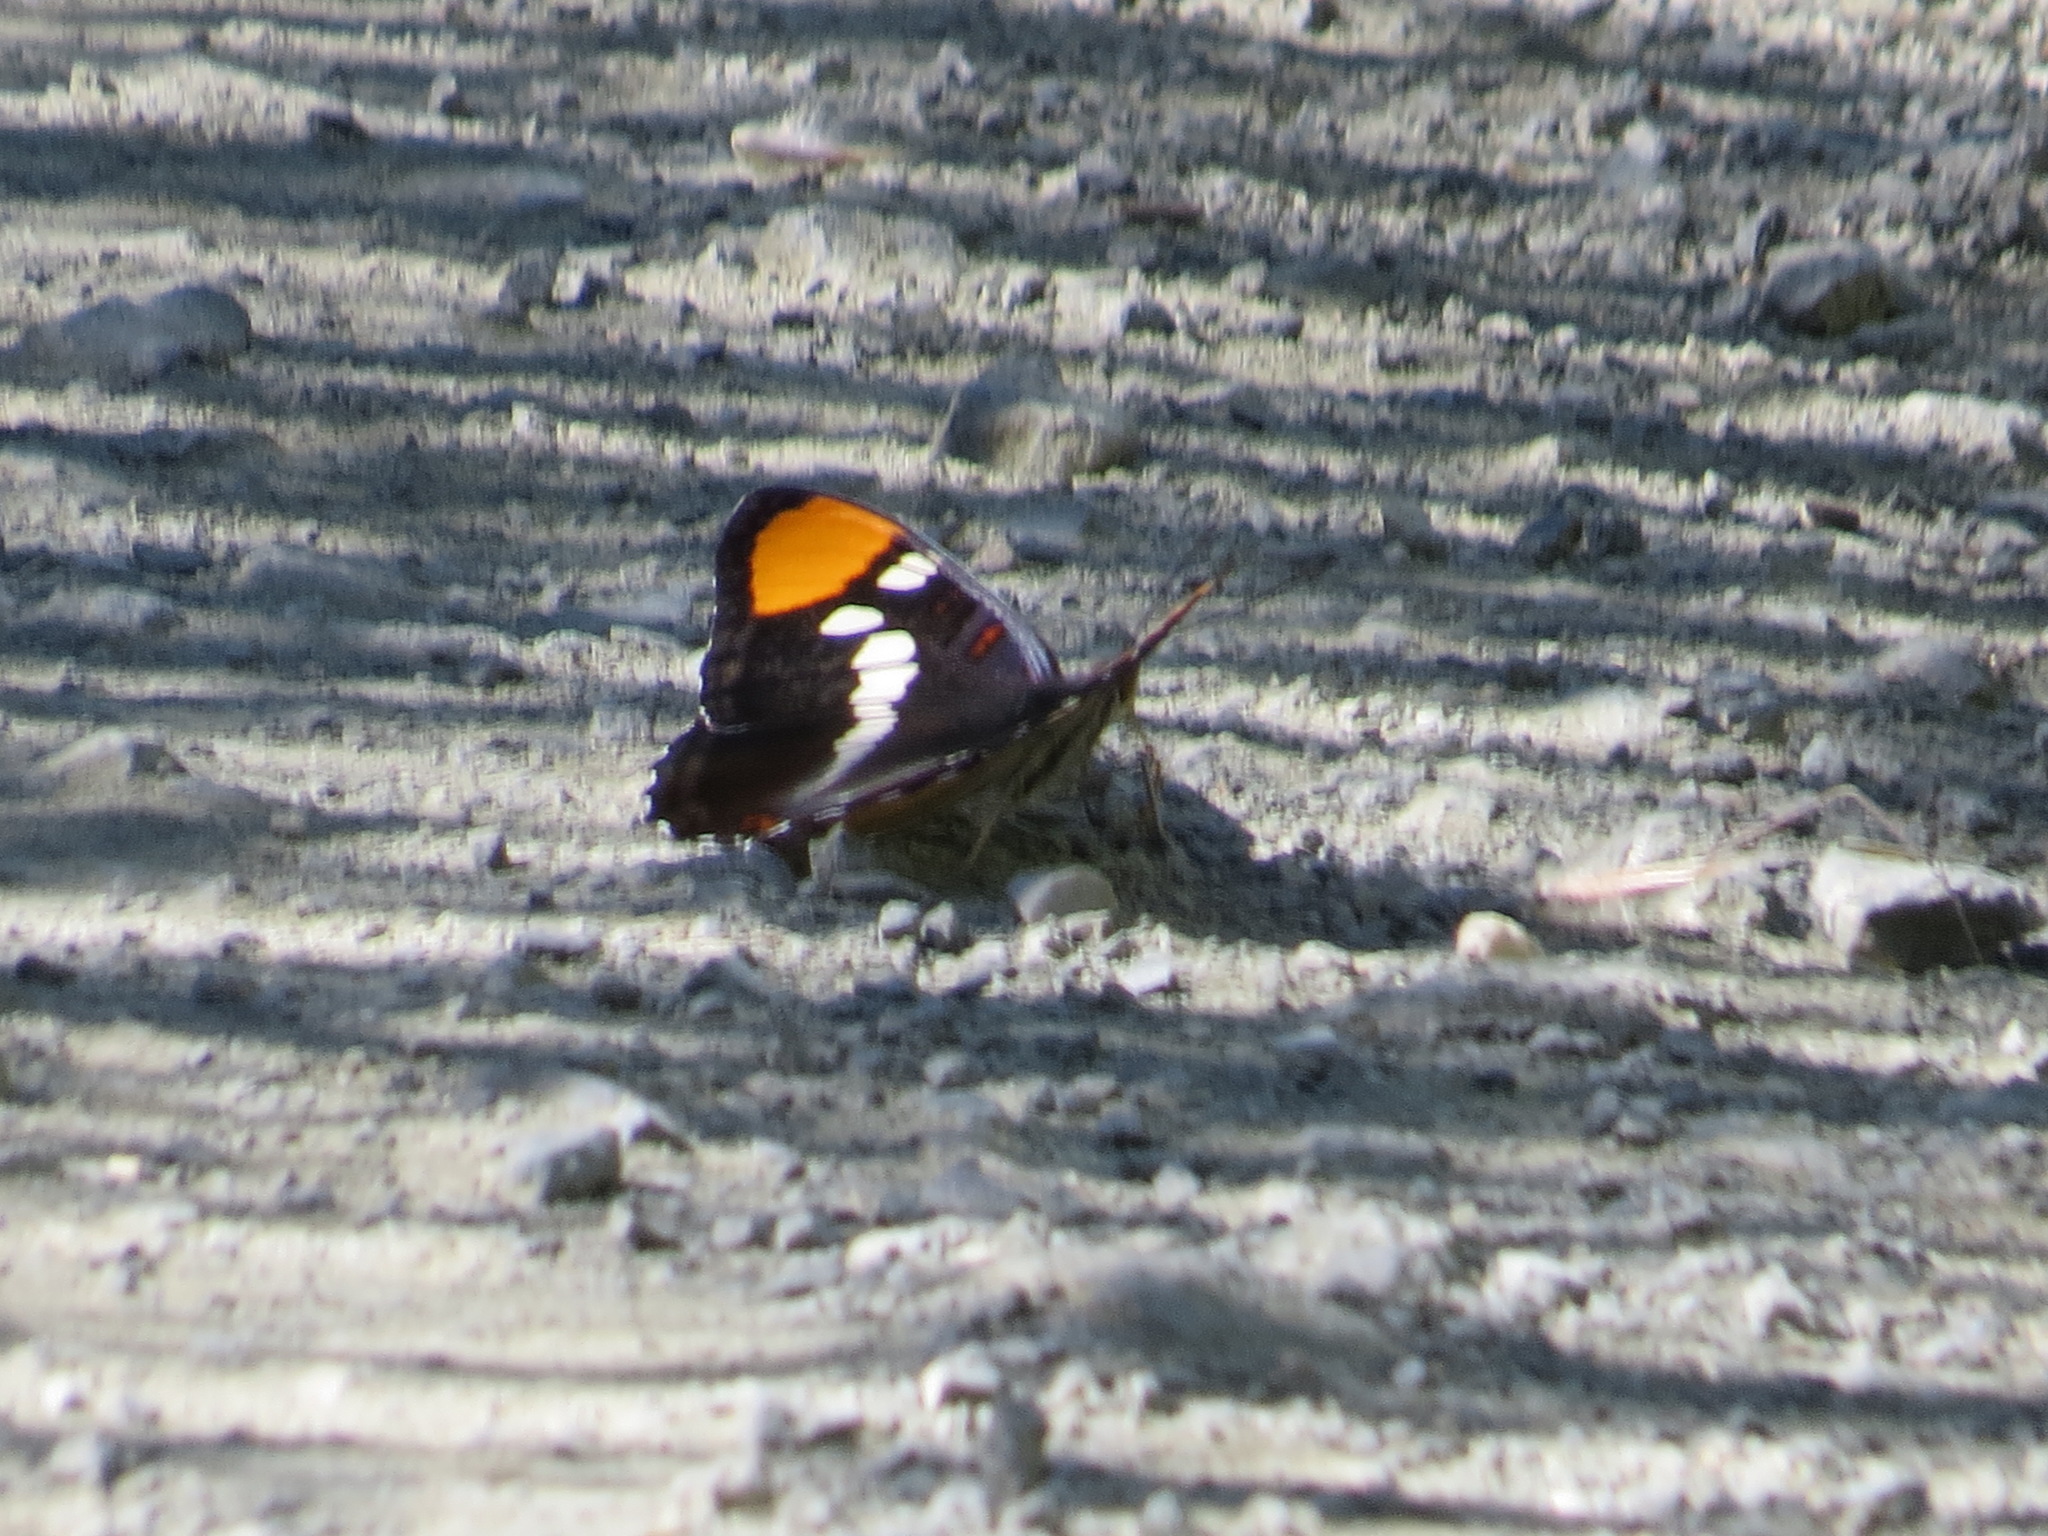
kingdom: Animalia
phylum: Arthropoda
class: Insecta
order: Lepidoptera
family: Nymphalidae
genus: Limenitis
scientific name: Limenitis bredowii
